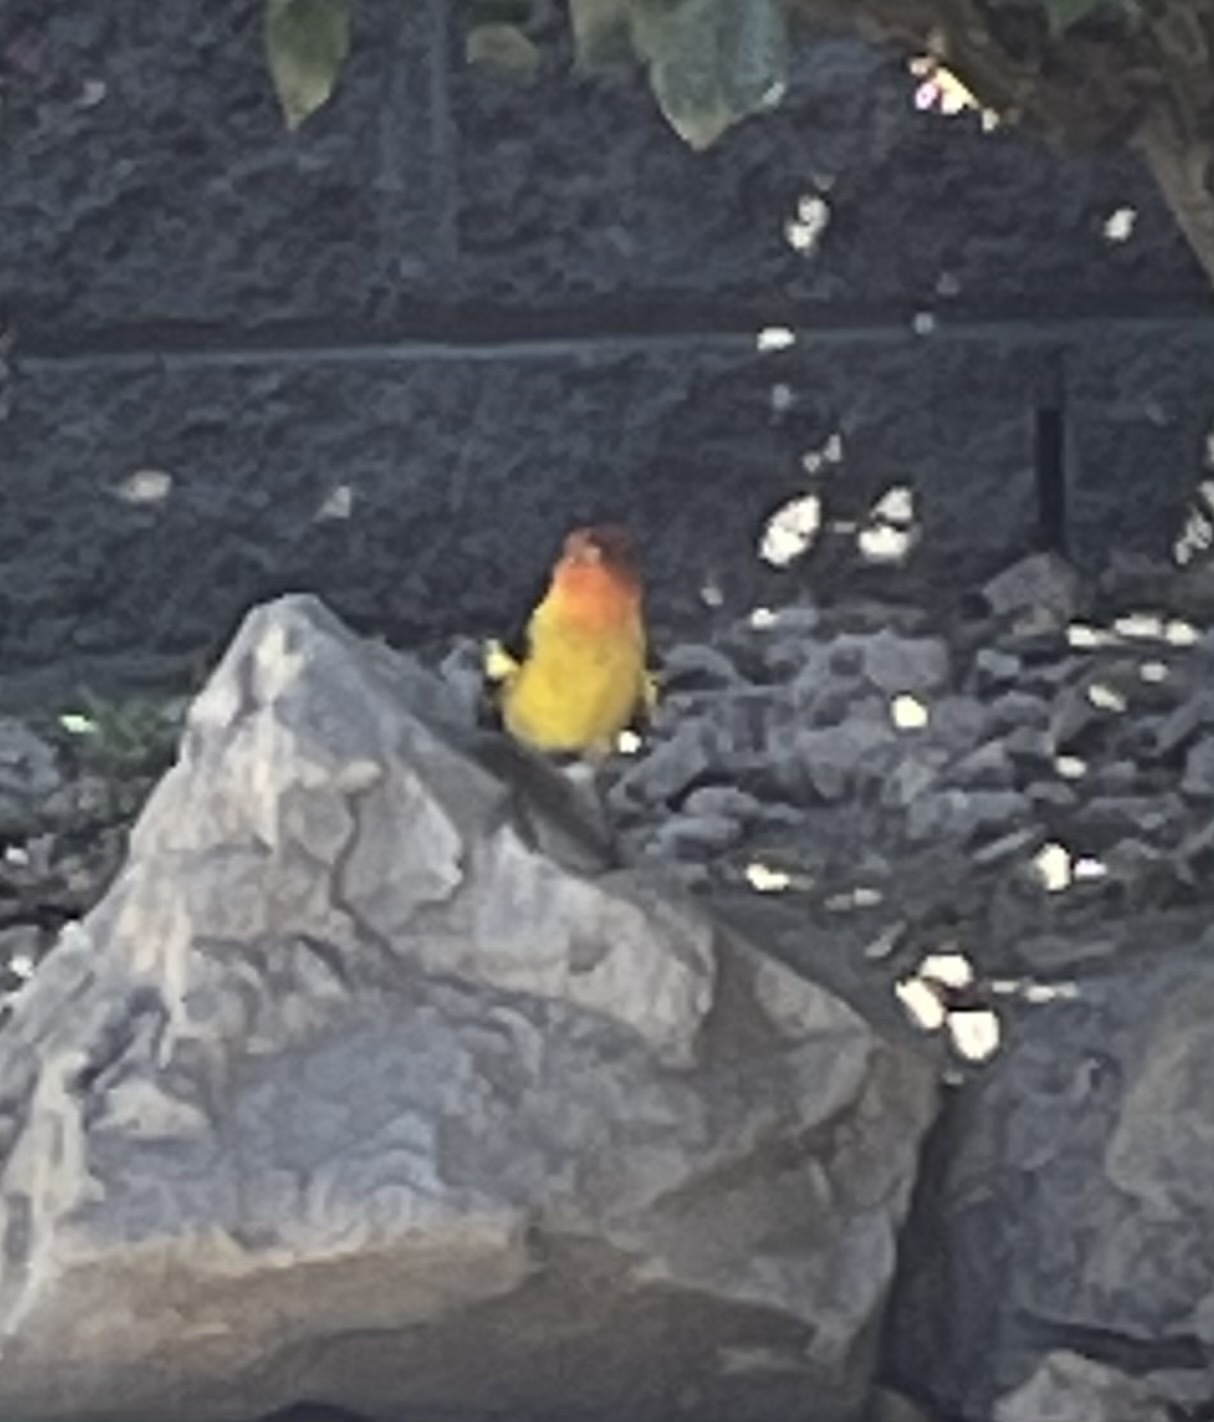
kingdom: Animalia
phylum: Chordata
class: Aves
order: Passeriformes
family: Cardinalidae
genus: Piranga
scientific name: Piranga ludoviciana
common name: Western tanager
